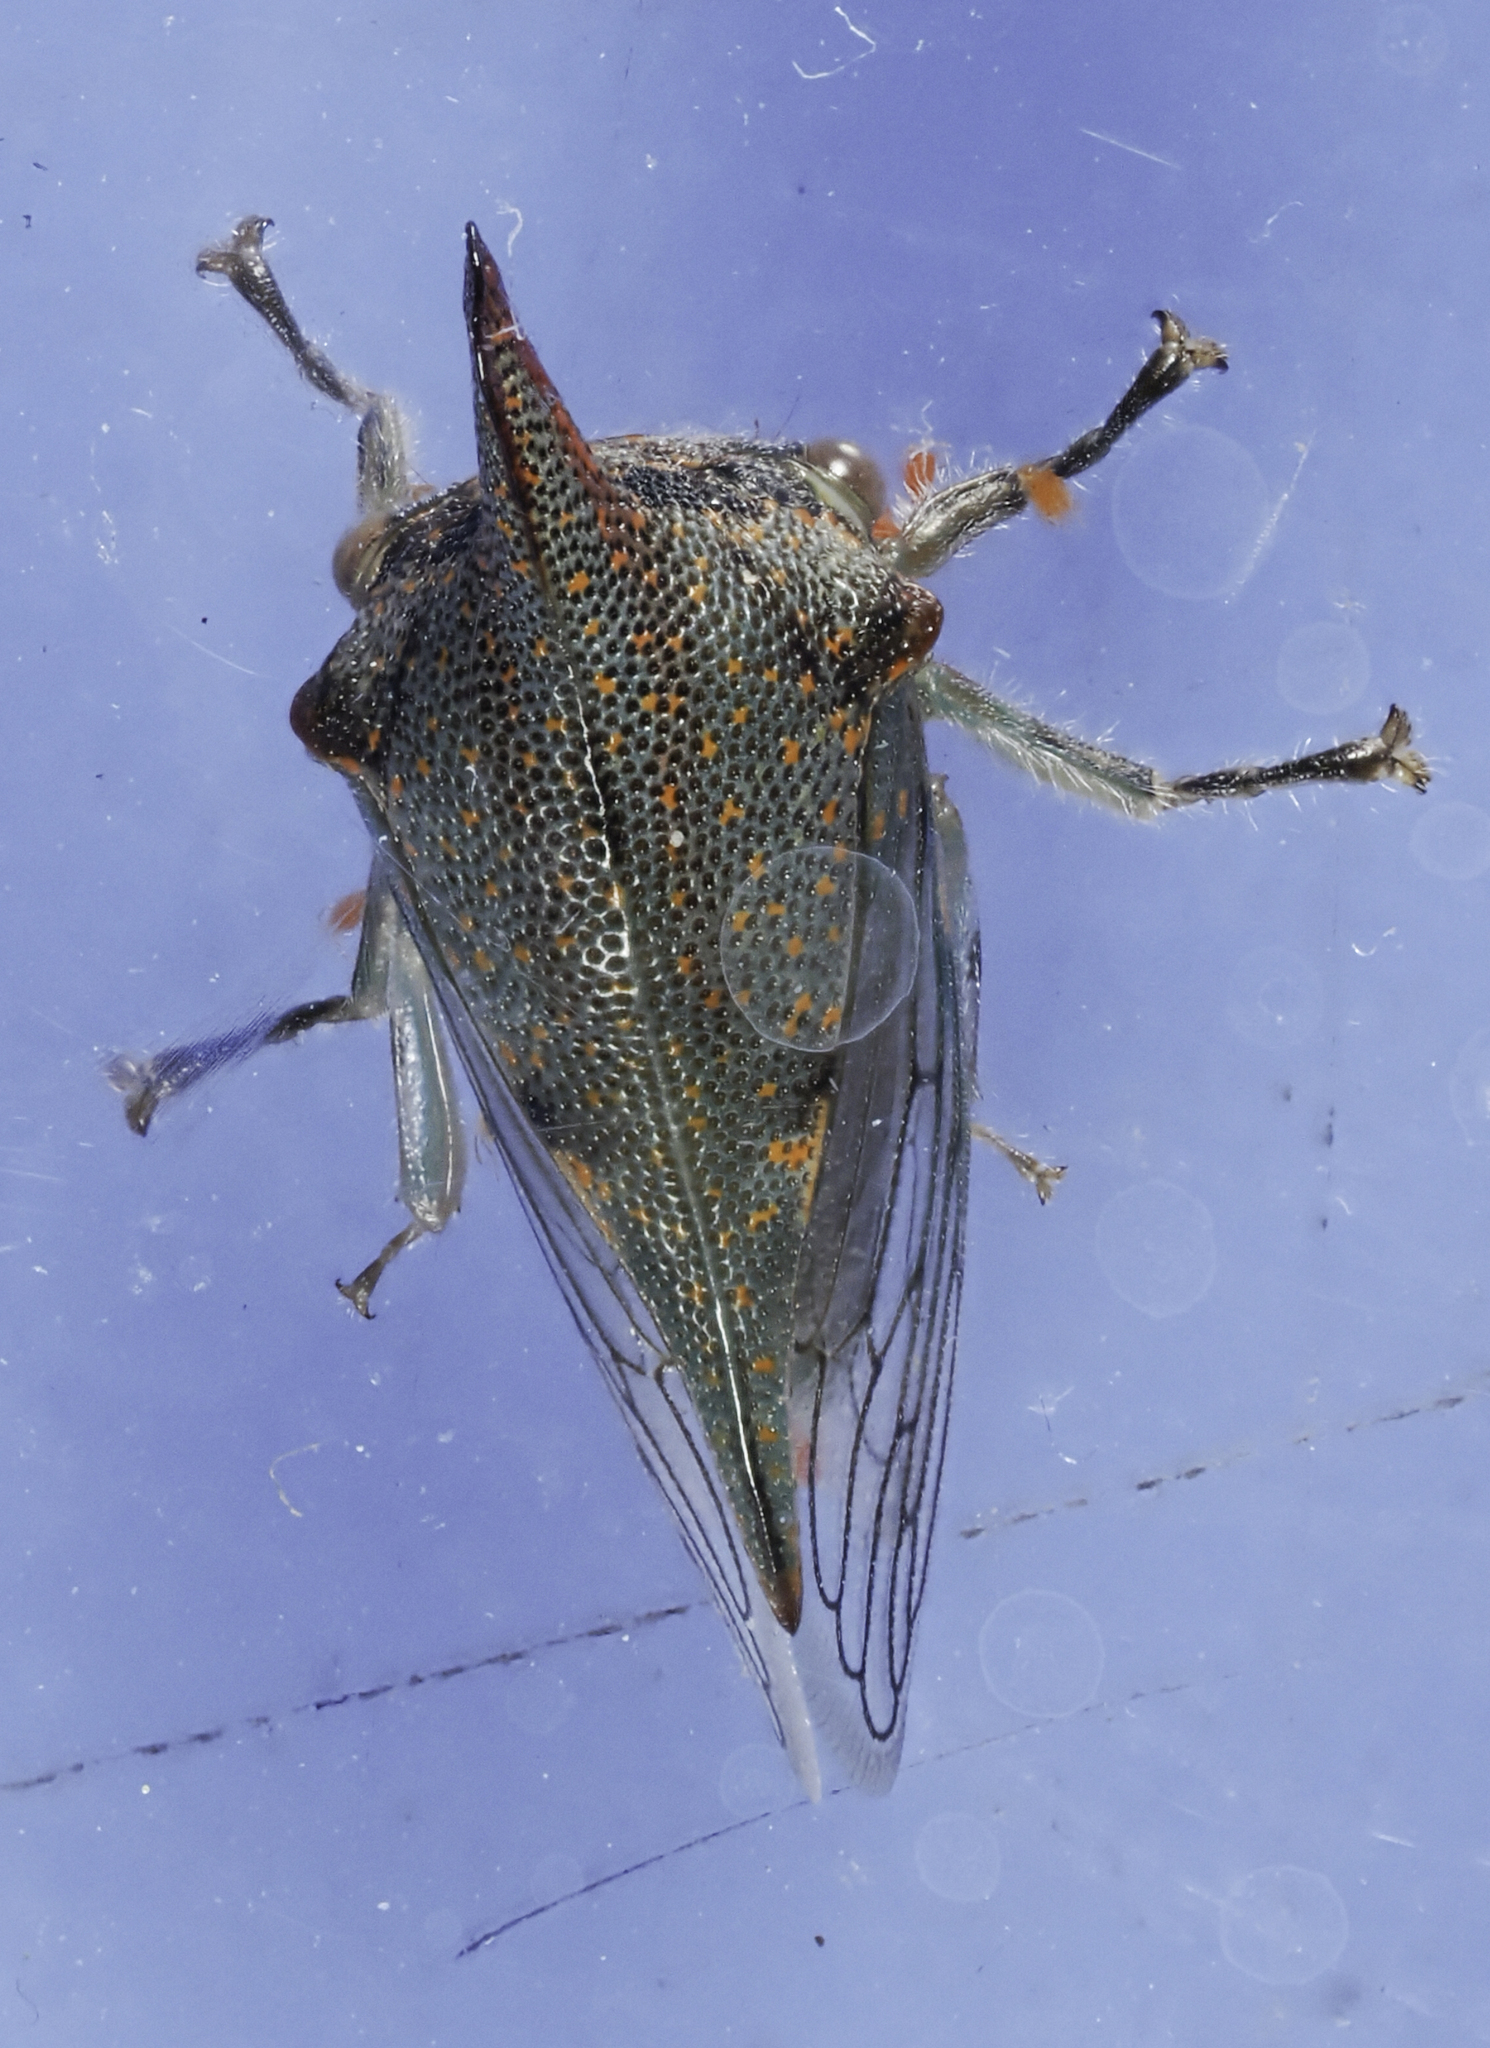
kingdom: Animalia
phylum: Arthropoda
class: Insecta
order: Hemiptera
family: Membracidae
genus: Platycotis
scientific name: Platycotis vittatus
